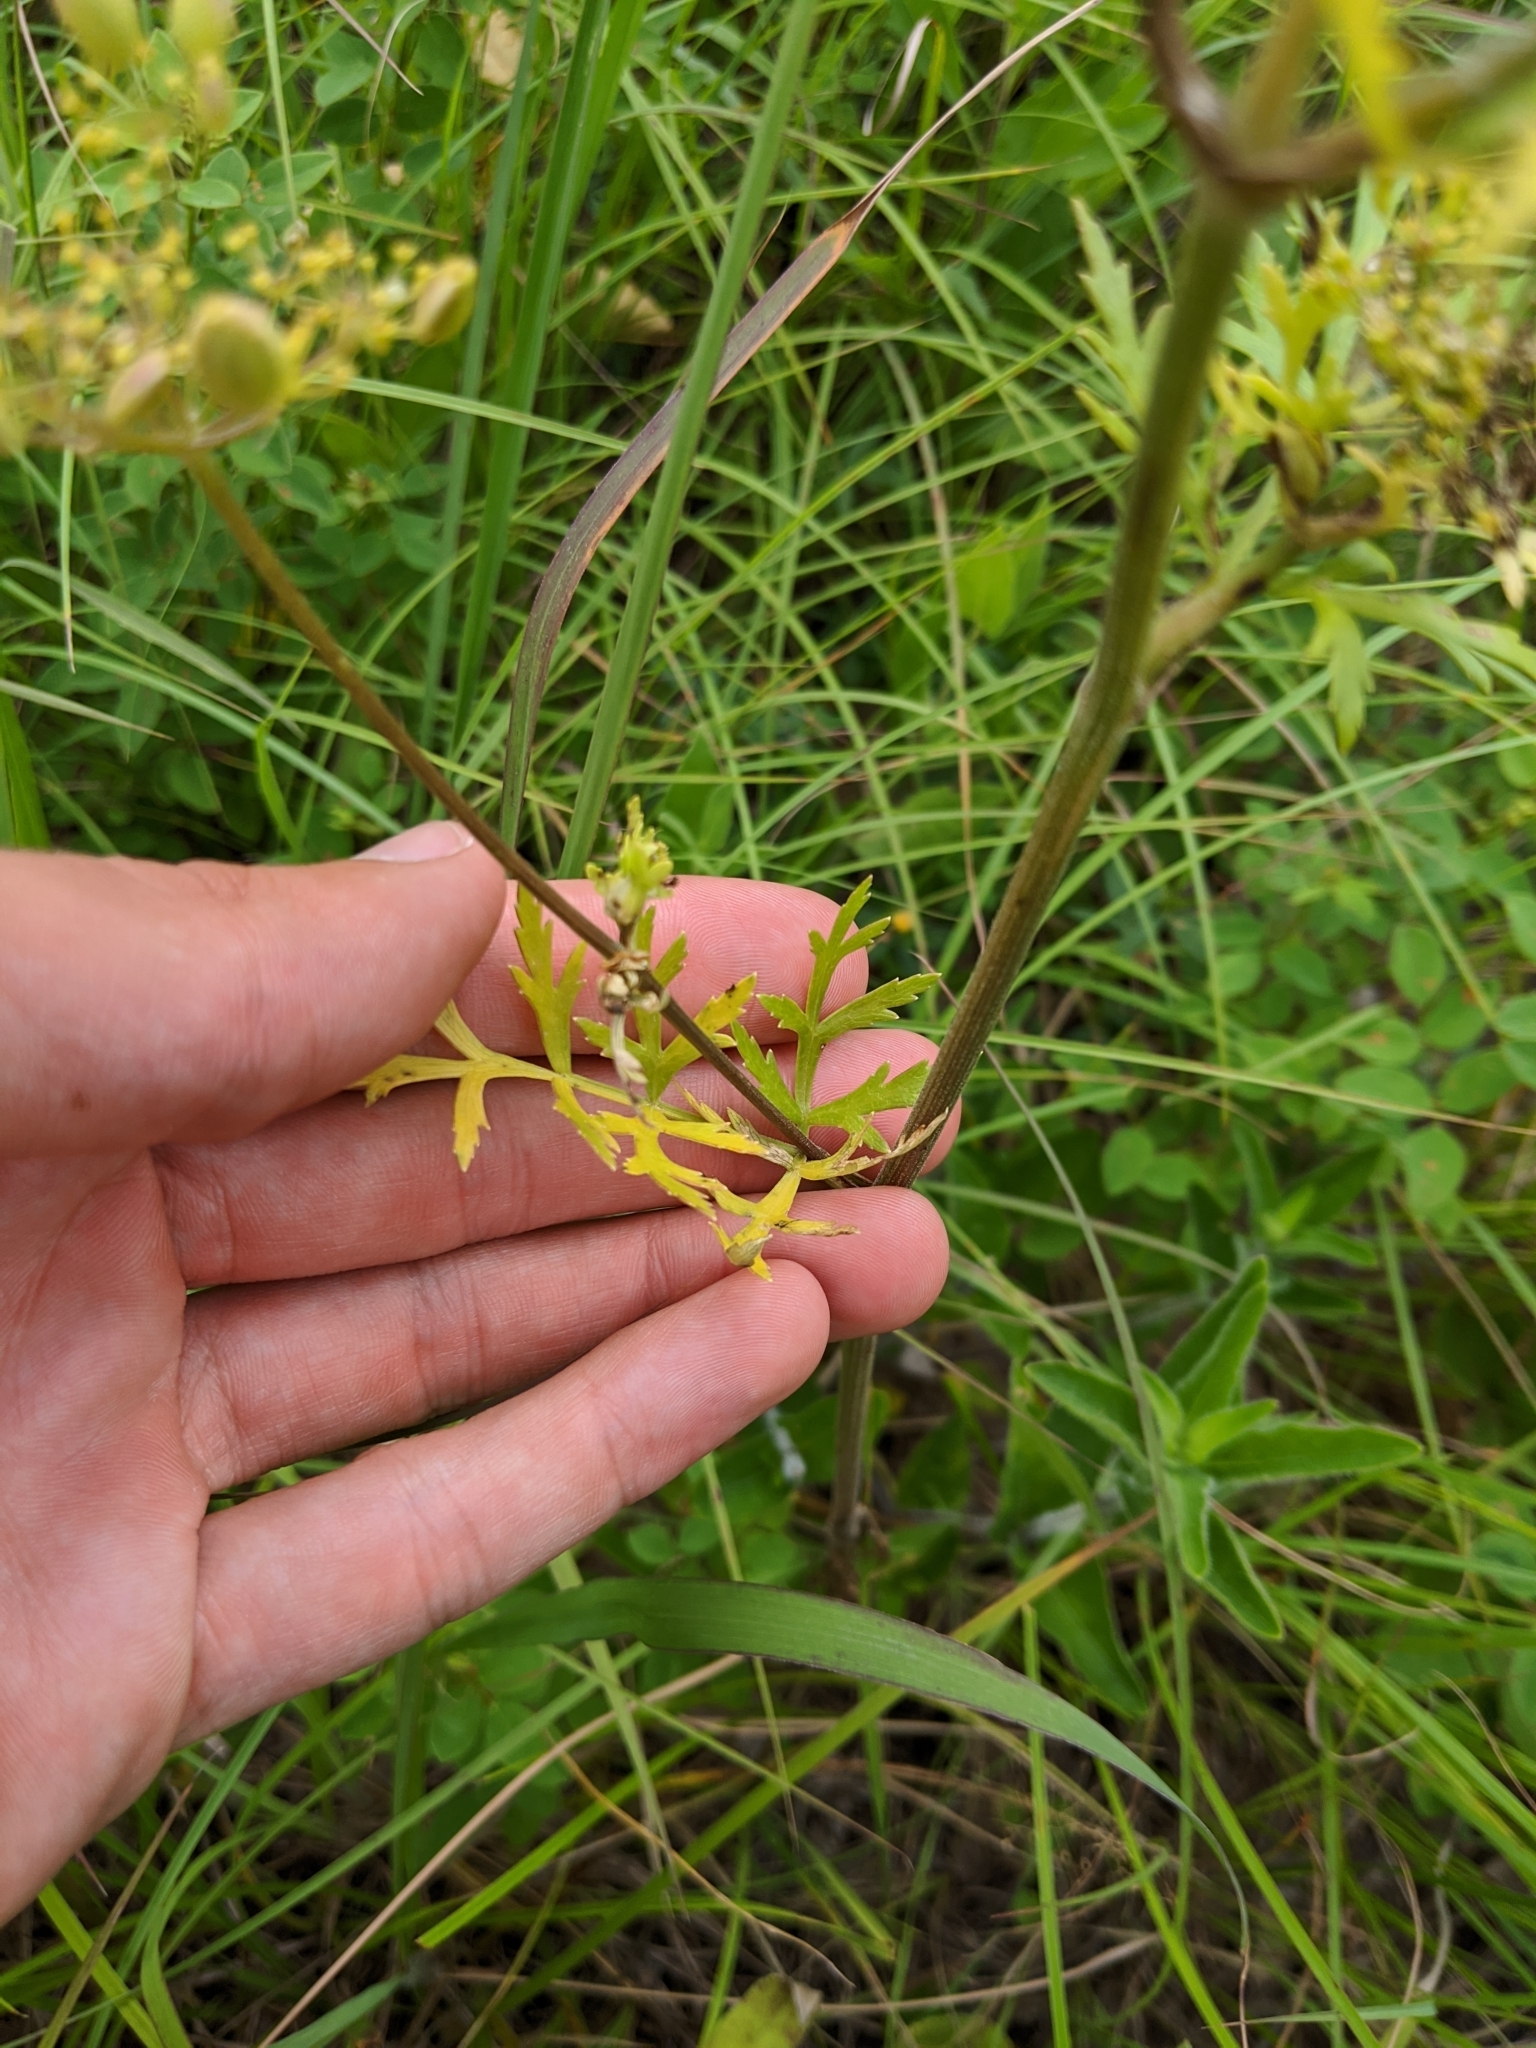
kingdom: Plantae
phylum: Tracheophyta
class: Magnoliopsida
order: Apiales
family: Apiaceae
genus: Polytaenia
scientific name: Polytaenia nuttallii
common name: Prairie-parsley
